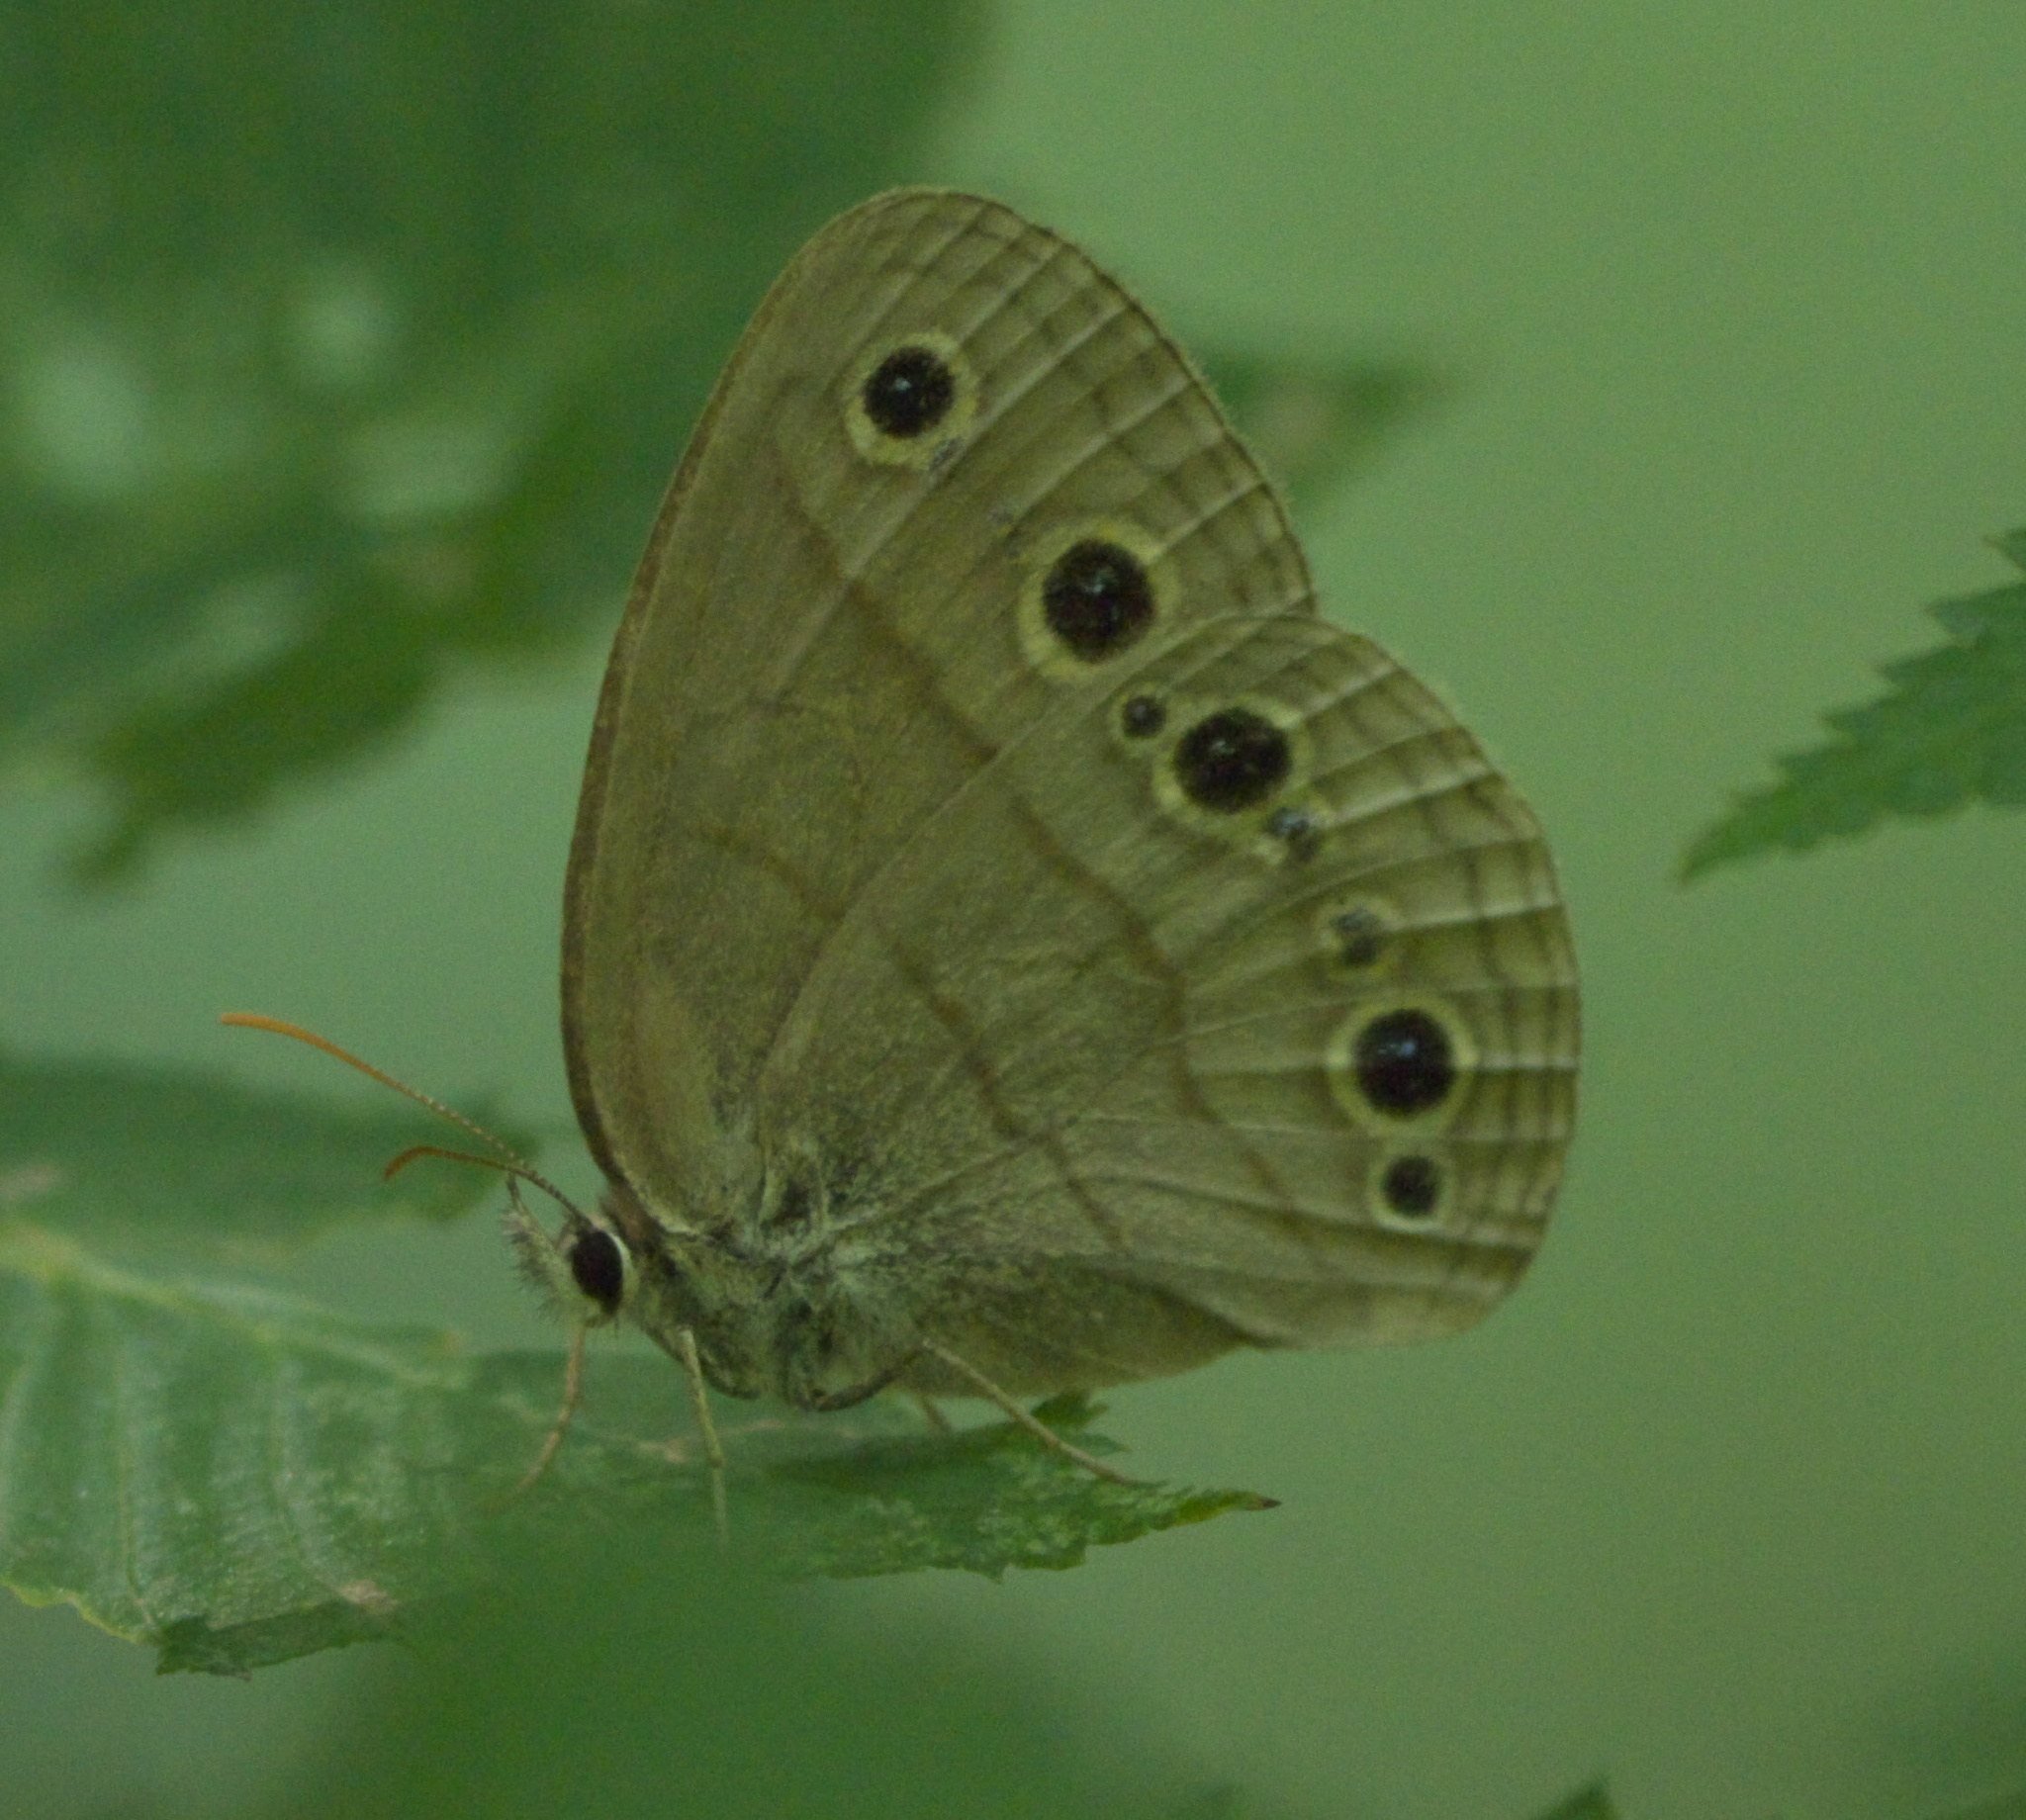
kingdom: Animalia
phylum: Arthropoda
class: Insecta
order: Lepidoptera
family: Nymphalidae
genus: Euptychia
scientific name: Euptychia cymela
